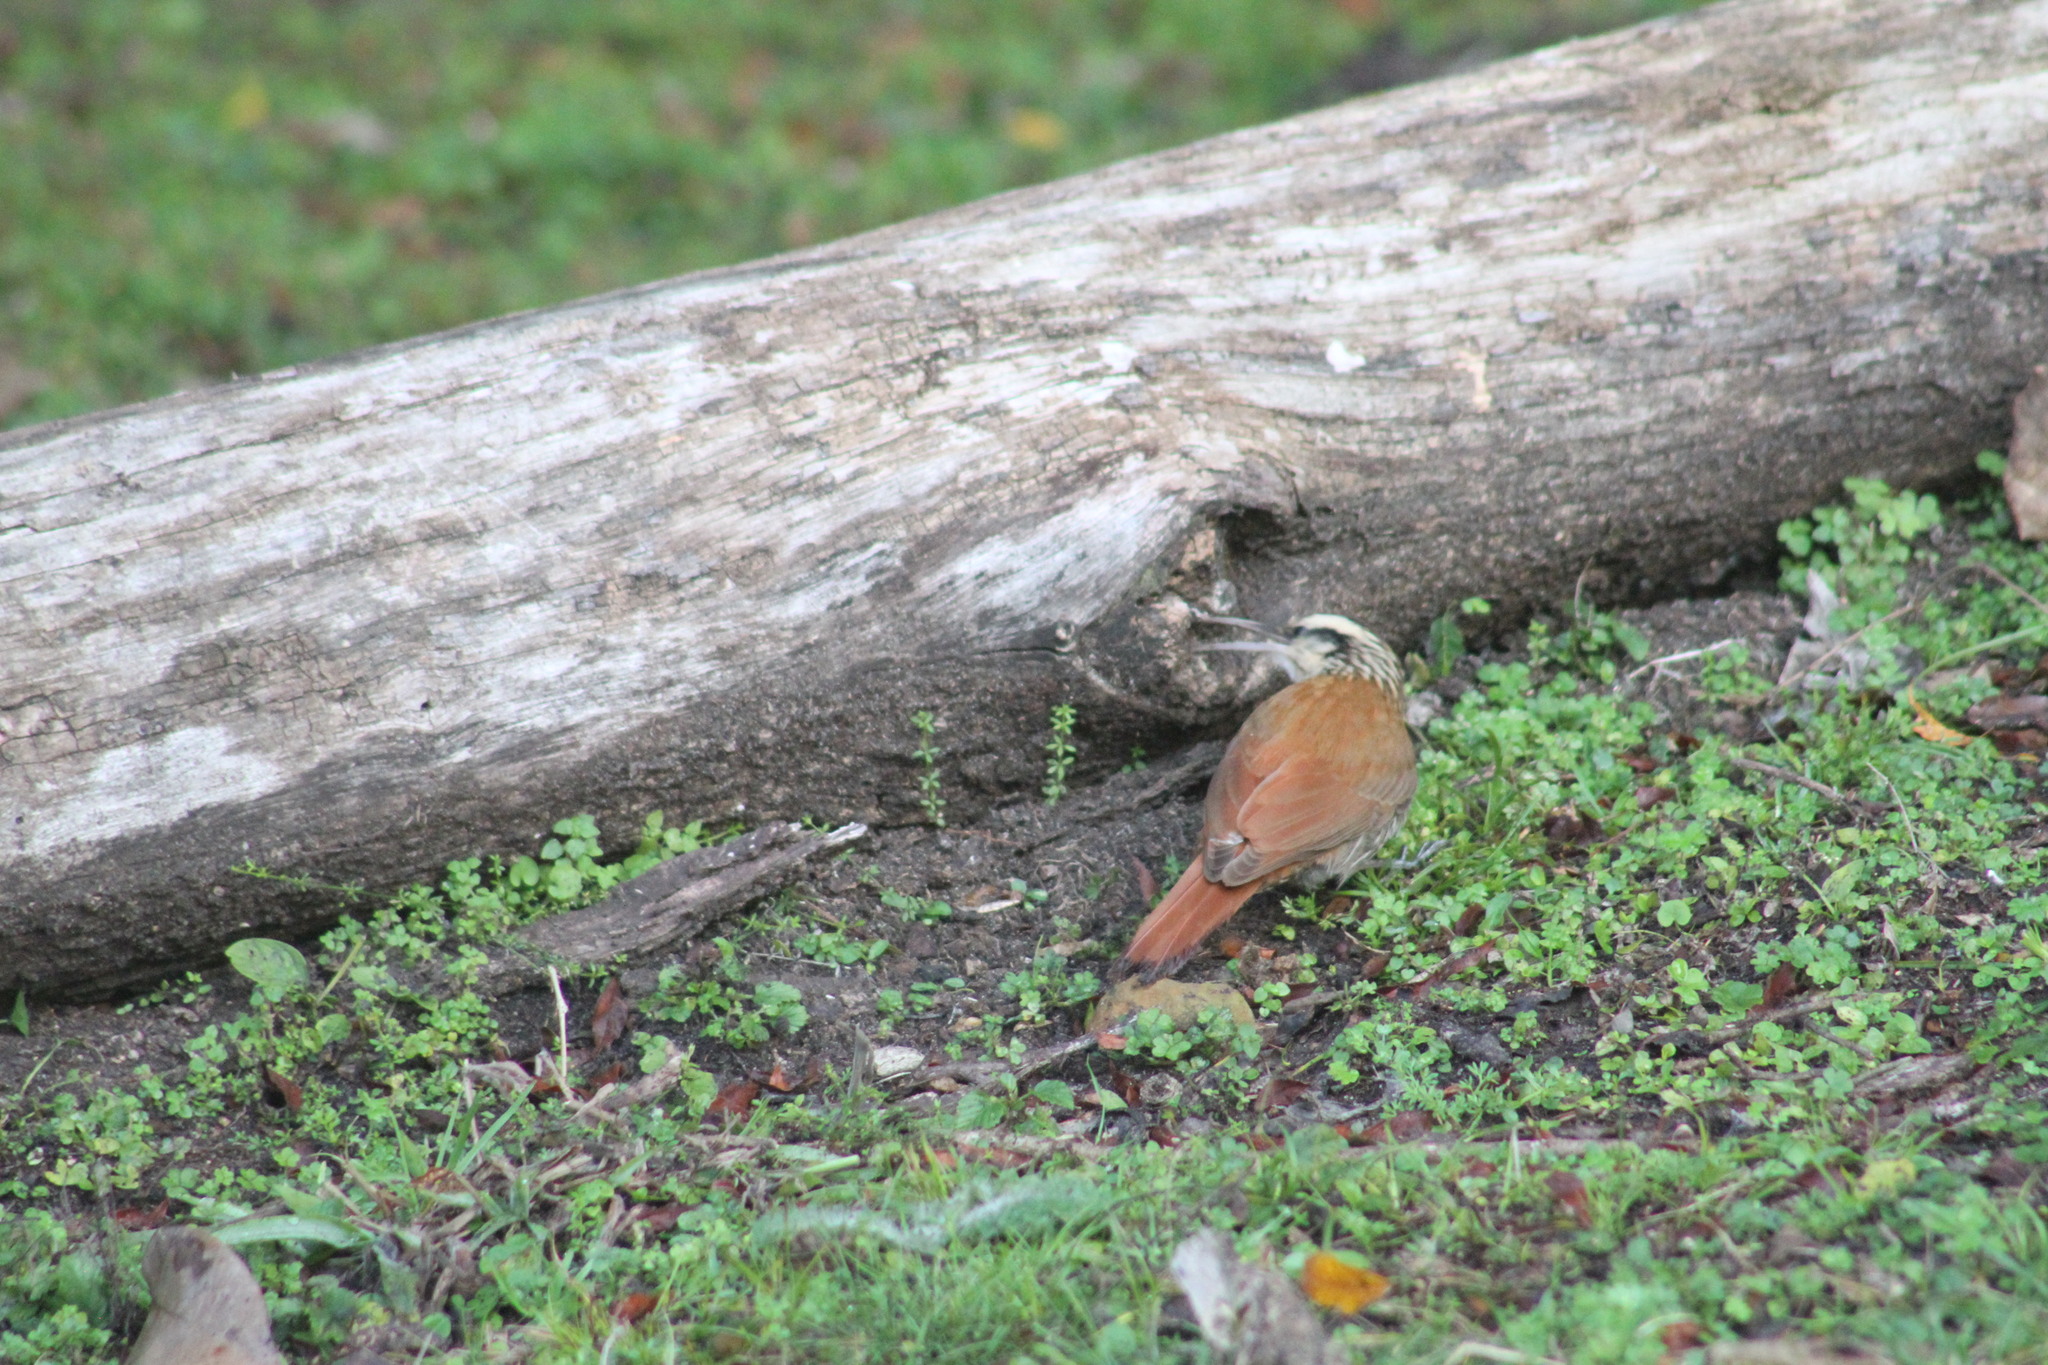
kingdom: Animalia
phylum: Chordata
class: Aves
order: Passeriformes
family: Furnariidae
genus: Lepidocolaptes
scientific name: Lepidocolaptes angustirostris
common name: Narrow-billed woodcreeper
